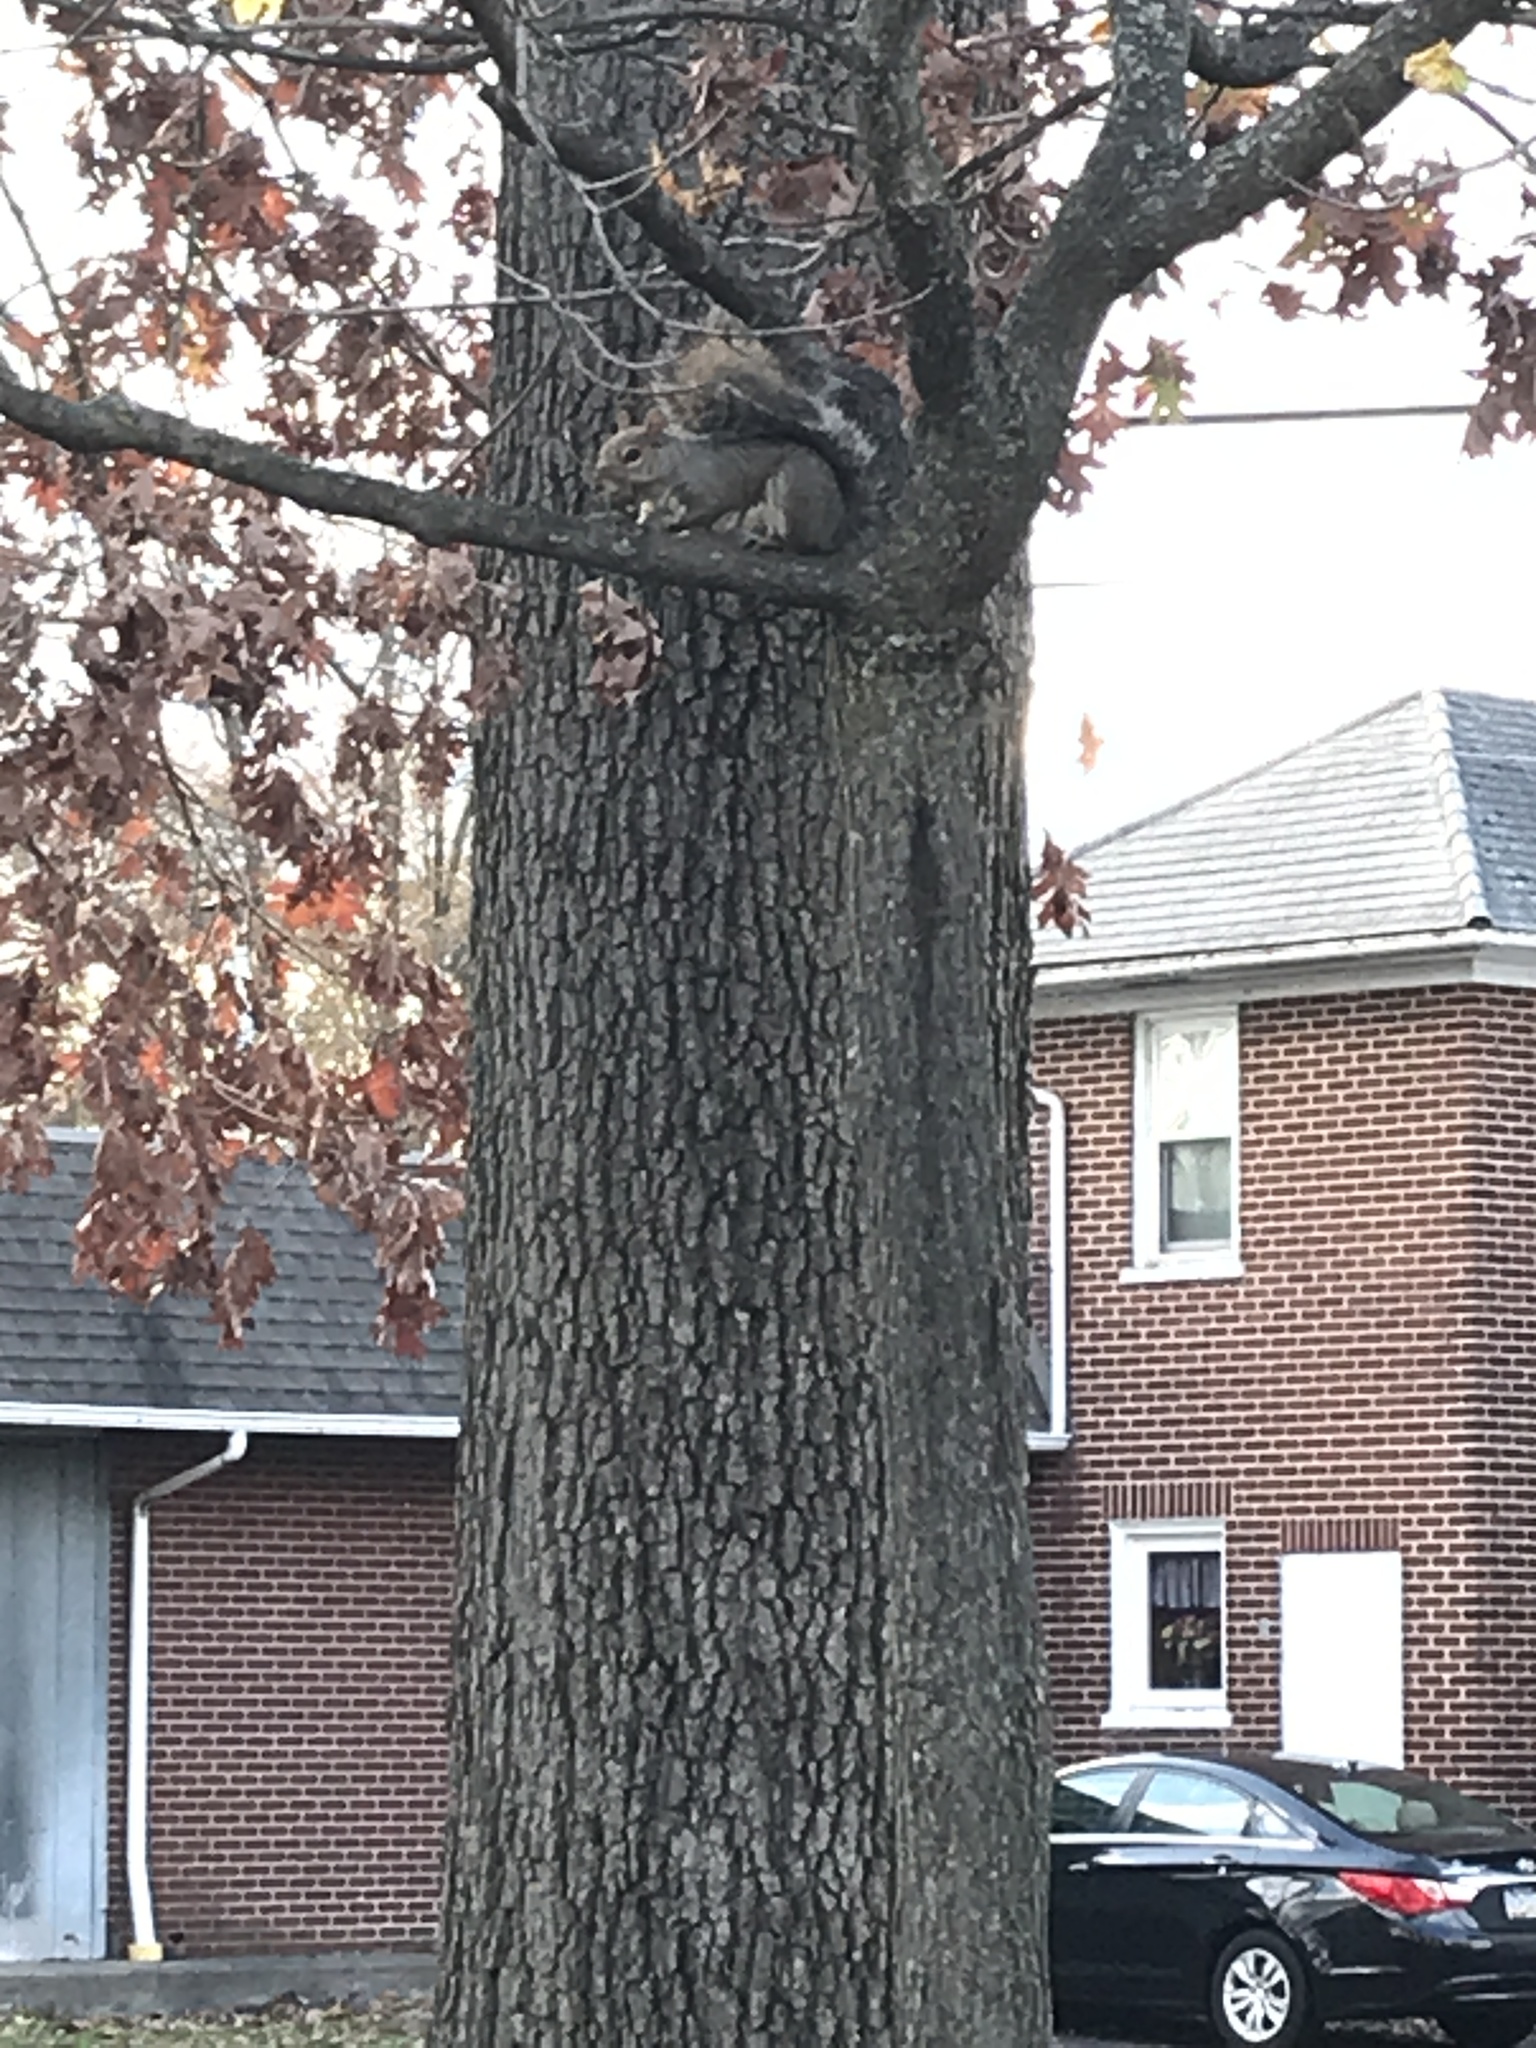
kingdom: Animalia
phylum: Chordata
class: Mammalia
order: Rodentia
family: Sciuridae
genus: Sciurus
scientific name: Sciurus carolinensis
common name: Eastern gray squirrel
